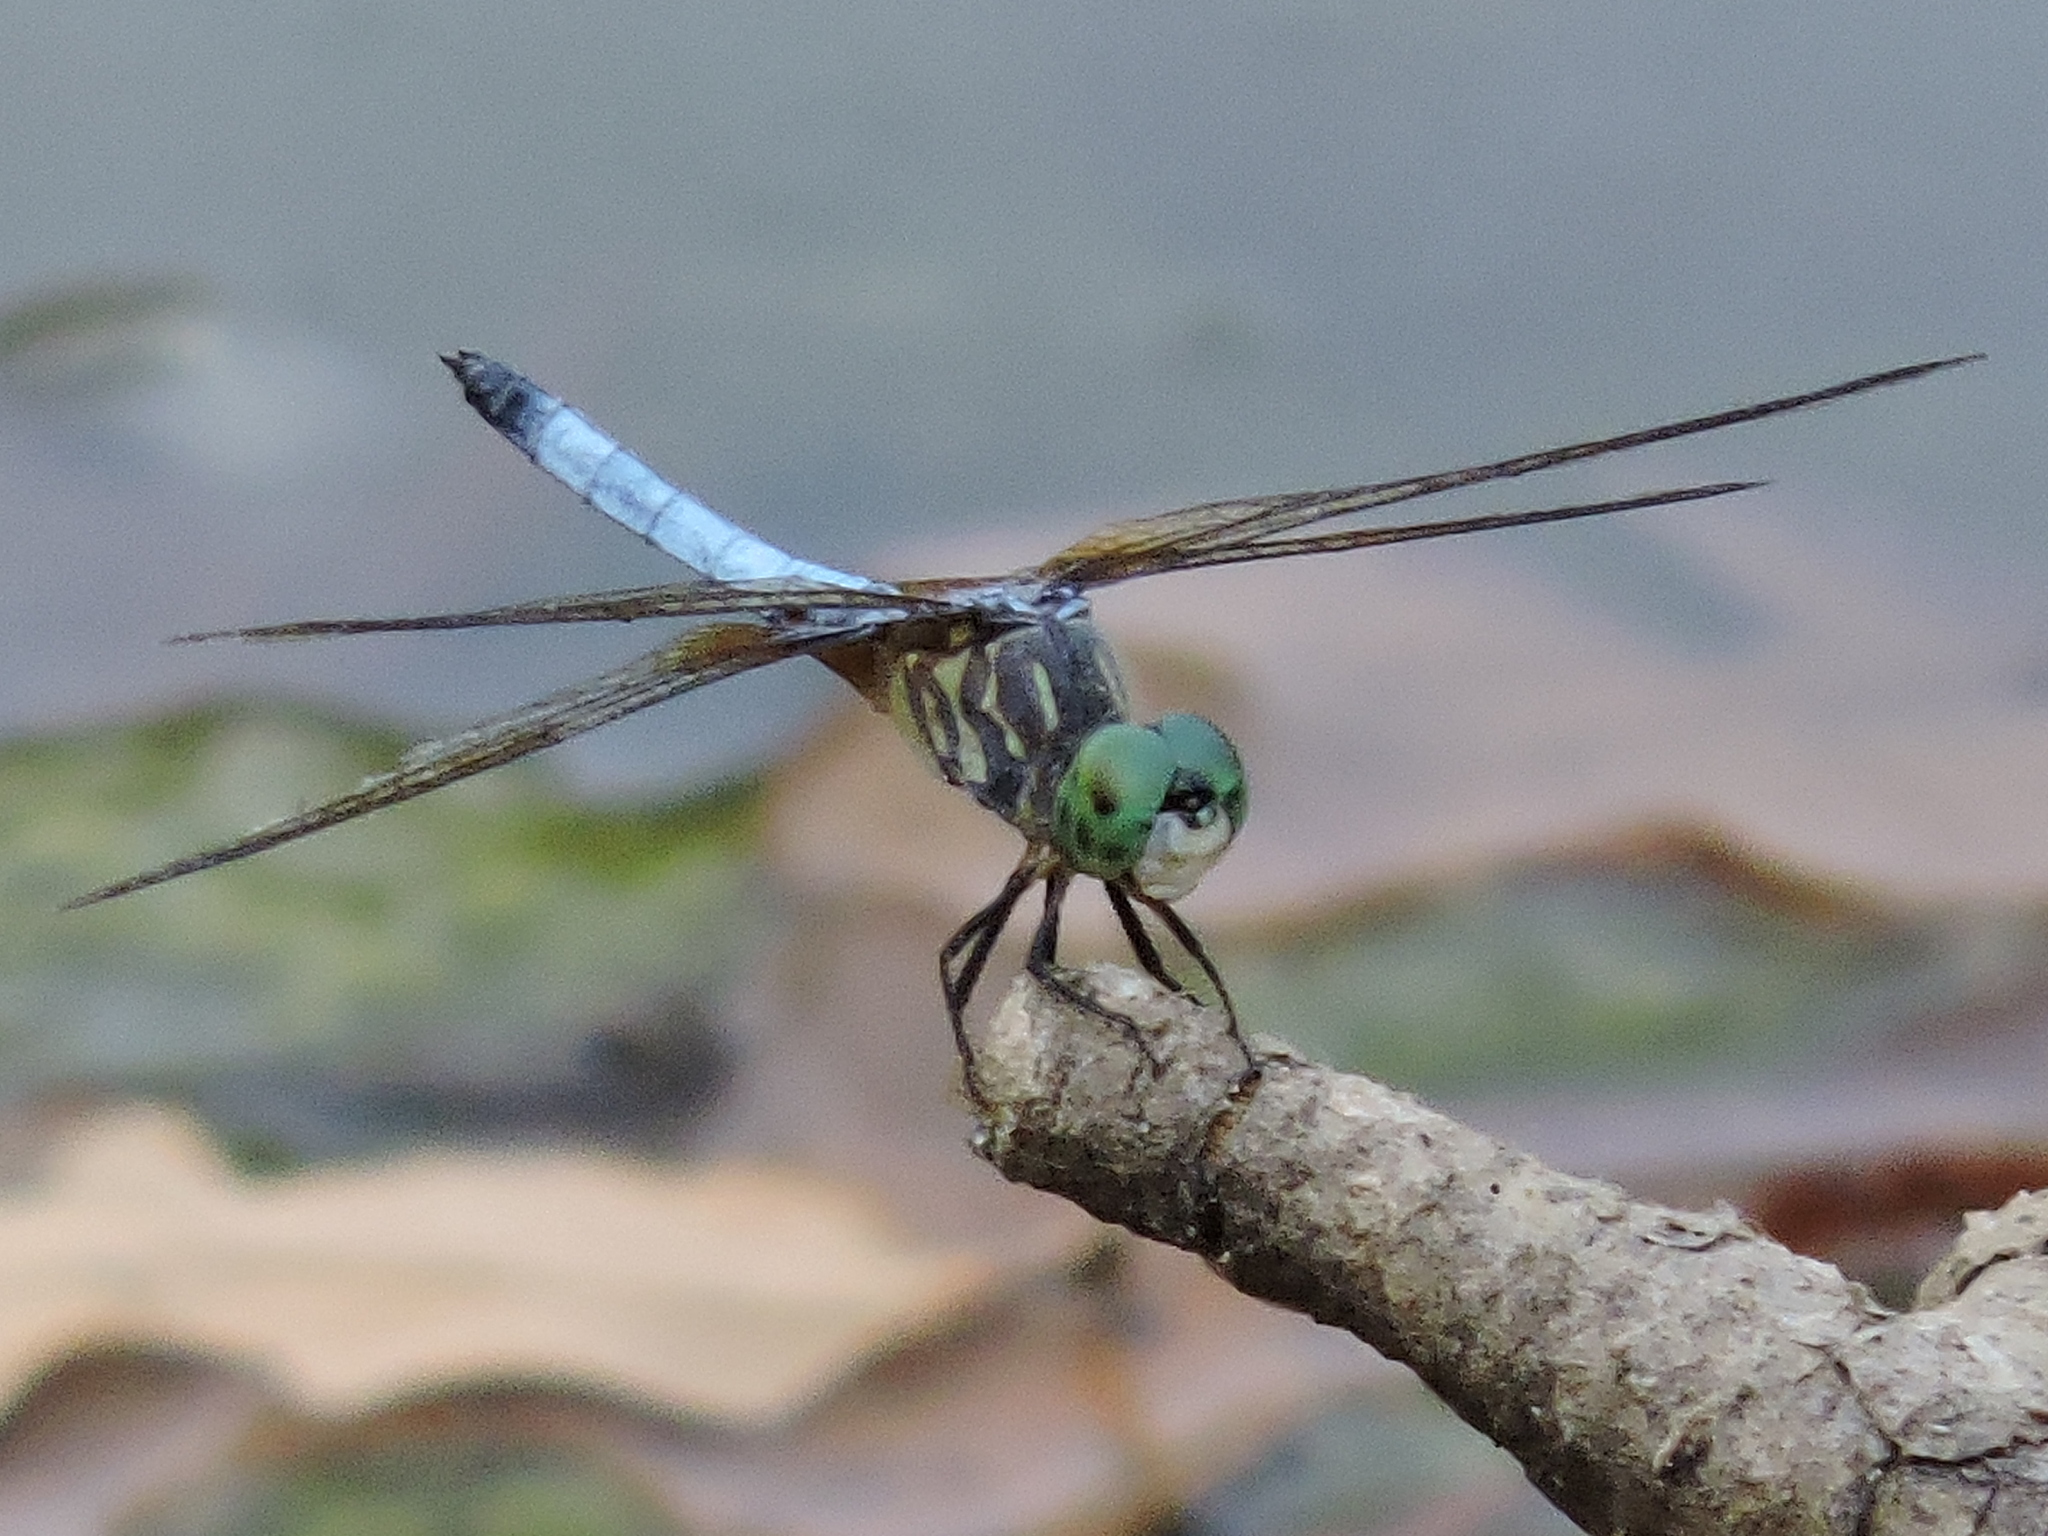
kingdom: Animalia
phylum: Arthropoda
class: Insecta
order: Odonata
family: Libellulidae
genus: Pachydiplax
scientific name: Pachydiplax longipennis
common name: Blue dasher
